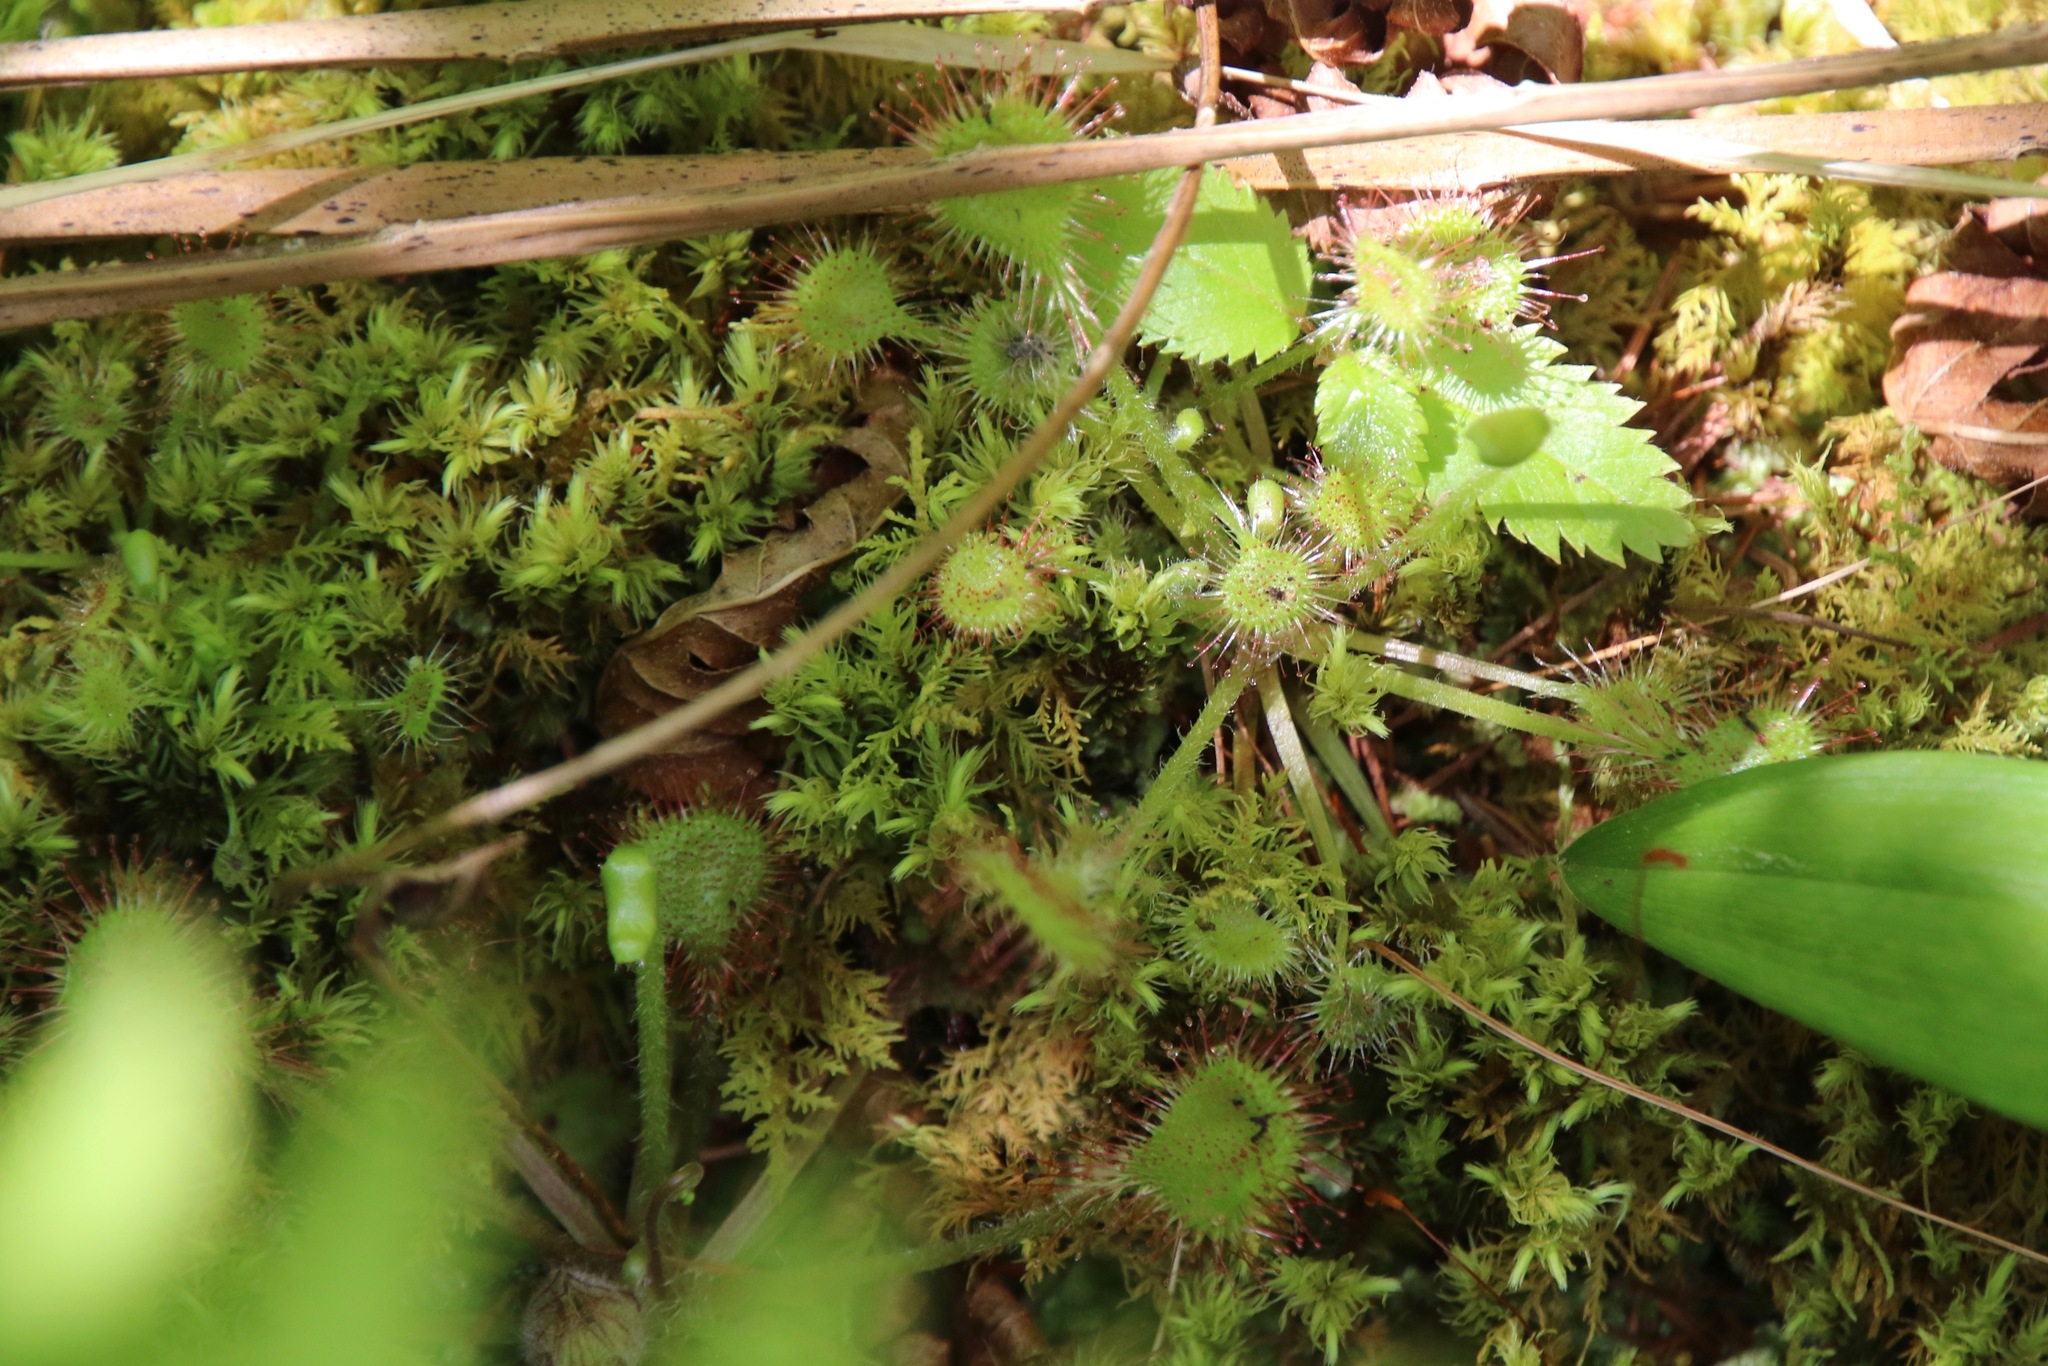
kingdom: Plantae
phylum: Tracheophyta
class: Magnoliopsida
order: Caryophyllales
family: Droseraceae
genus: Drosera
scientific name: Drosera rotundifolia
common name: Round-leaved sundew
